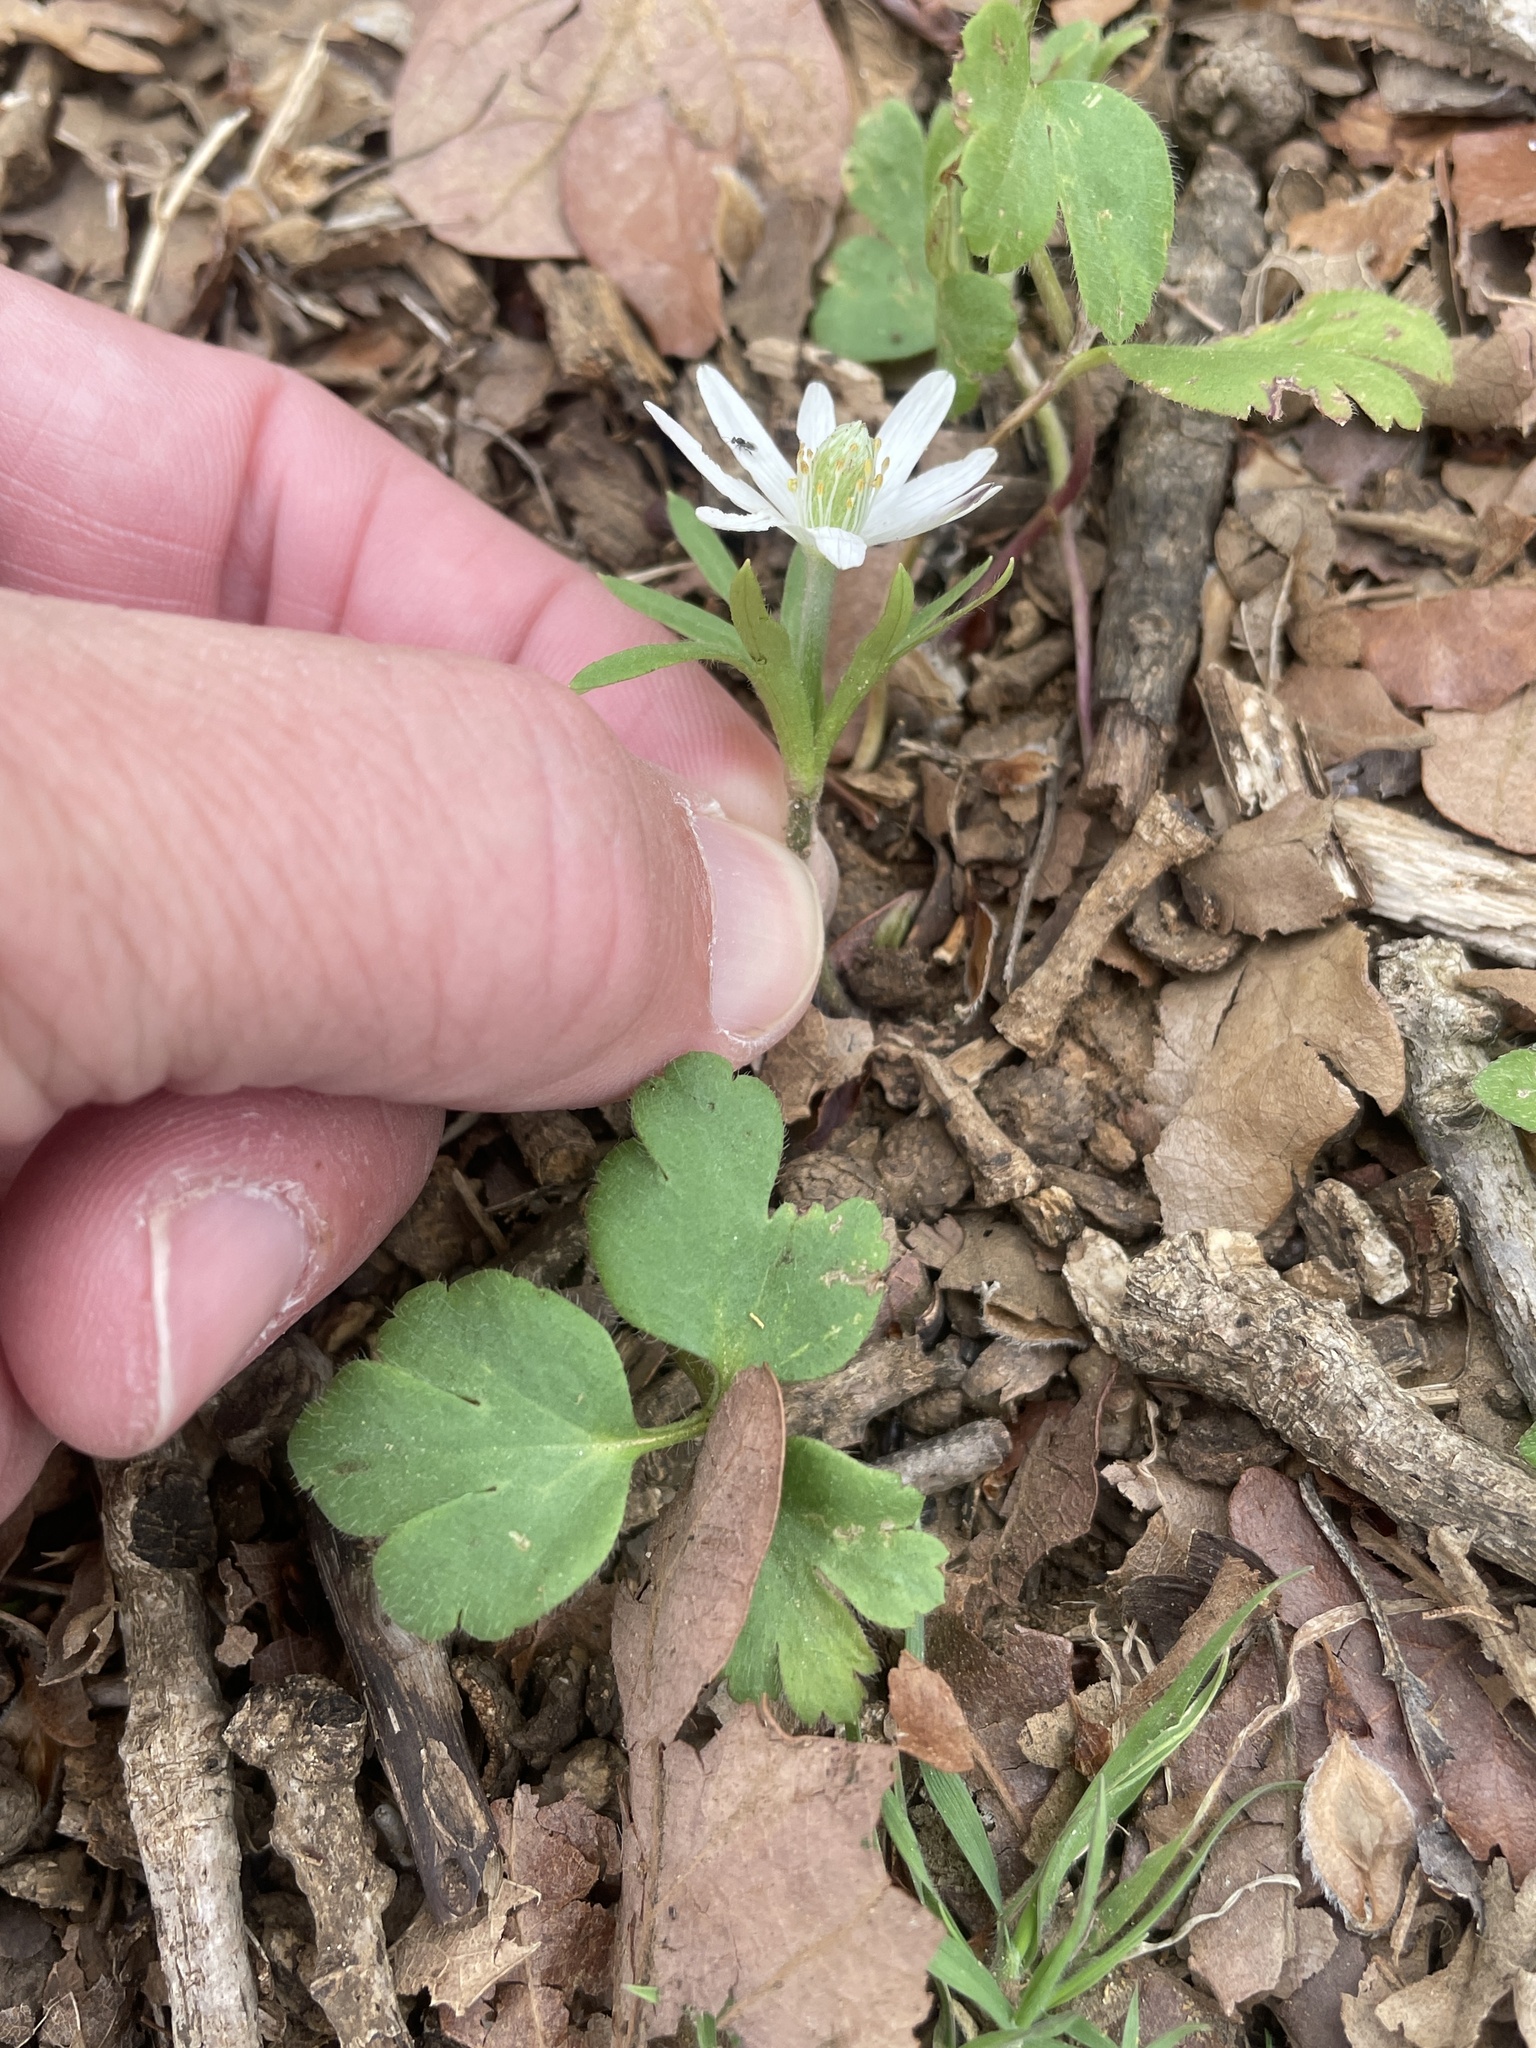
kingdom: Plantae
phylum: Tracheophyta
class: Magnoliopsida
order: Ranunculales
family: Ranunculaceae
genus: Anemone
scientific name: Anemone berlandieri
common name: Ten-petal anemone
